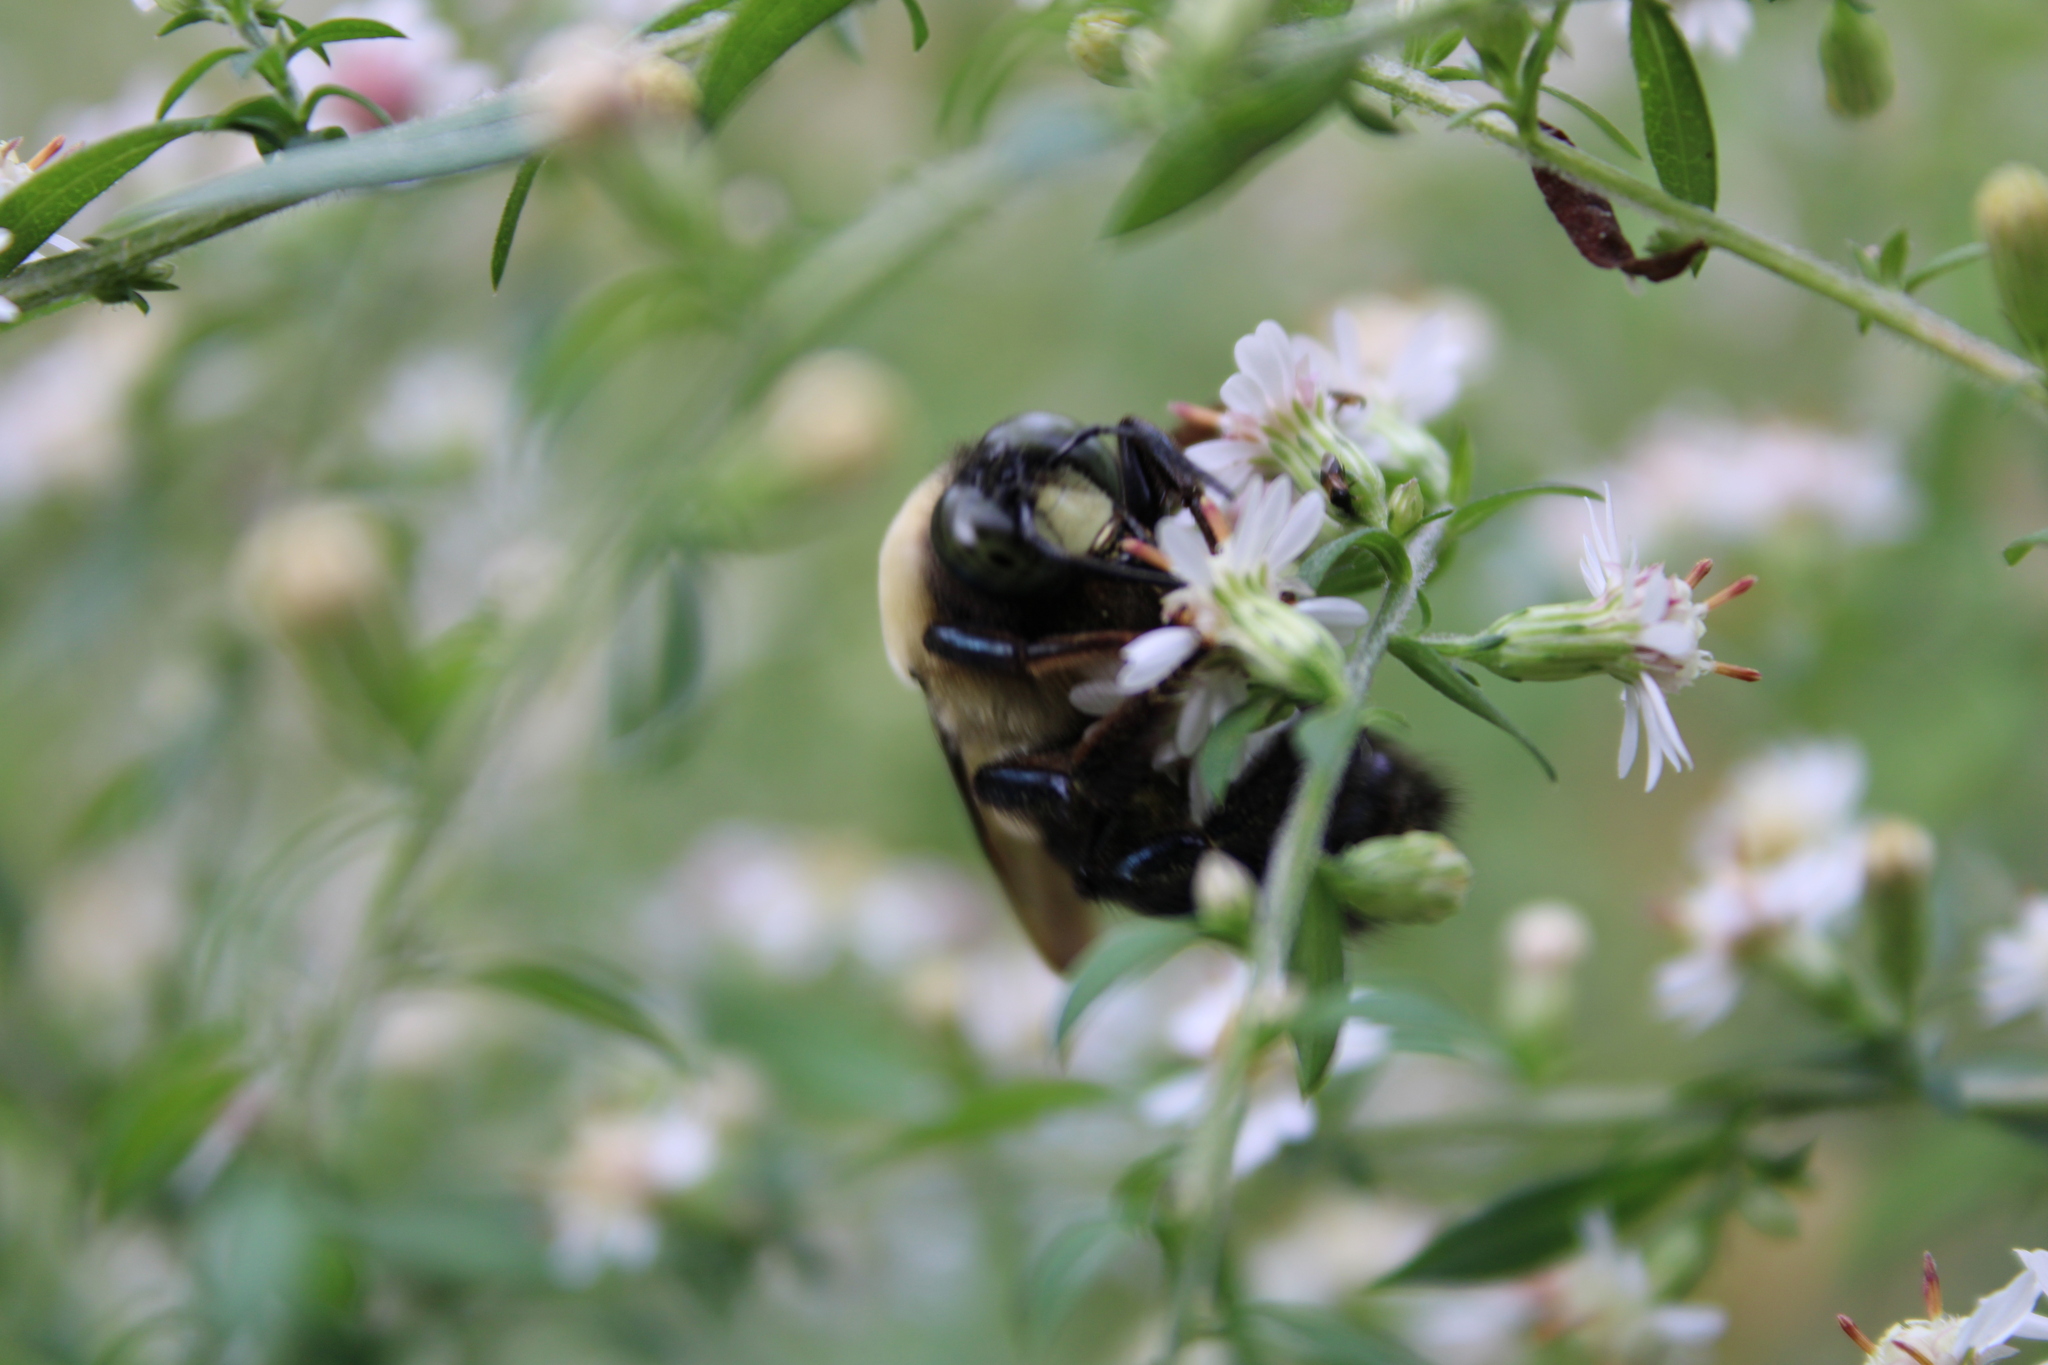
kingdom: Animalia
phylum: Arthropoda
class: Insecta
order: Hymenoptera
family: Apidae
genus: Xylocopa
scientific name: Xylocopa virginica
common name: Carpenter bee
